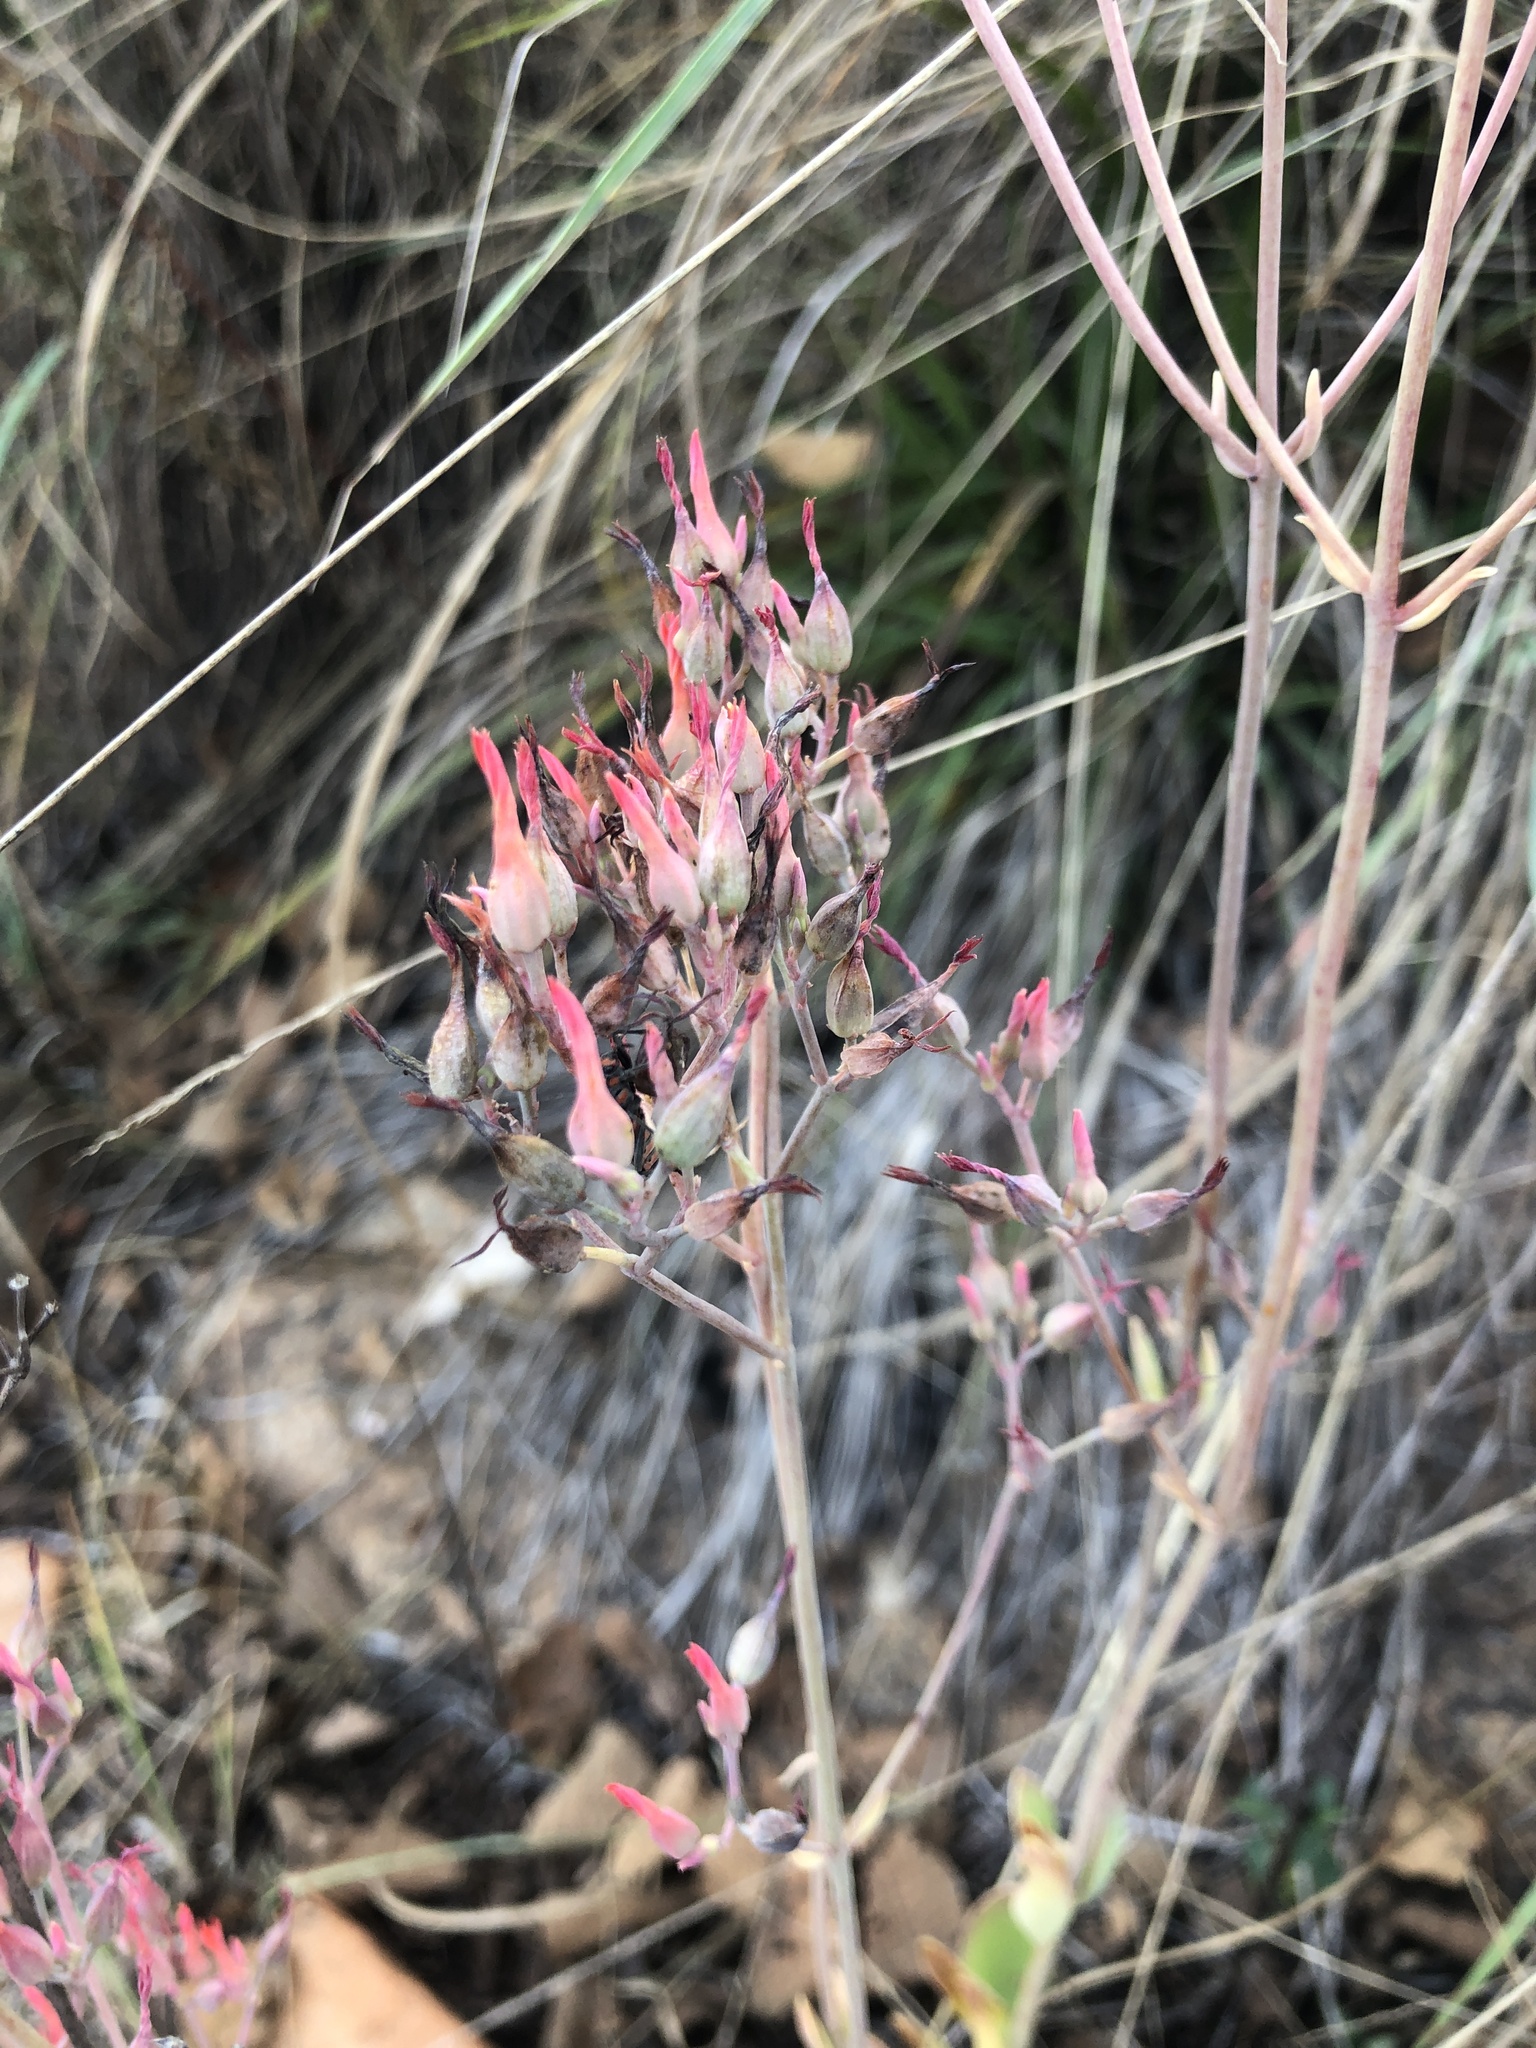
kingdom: Plantae
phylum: Tracheophyta
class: Magnoliopsida
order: Saxifragales
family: Crassulaceae
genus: Kalanchoe
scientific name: Kalanchoe rotundifolia
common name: Common kalanchoe
